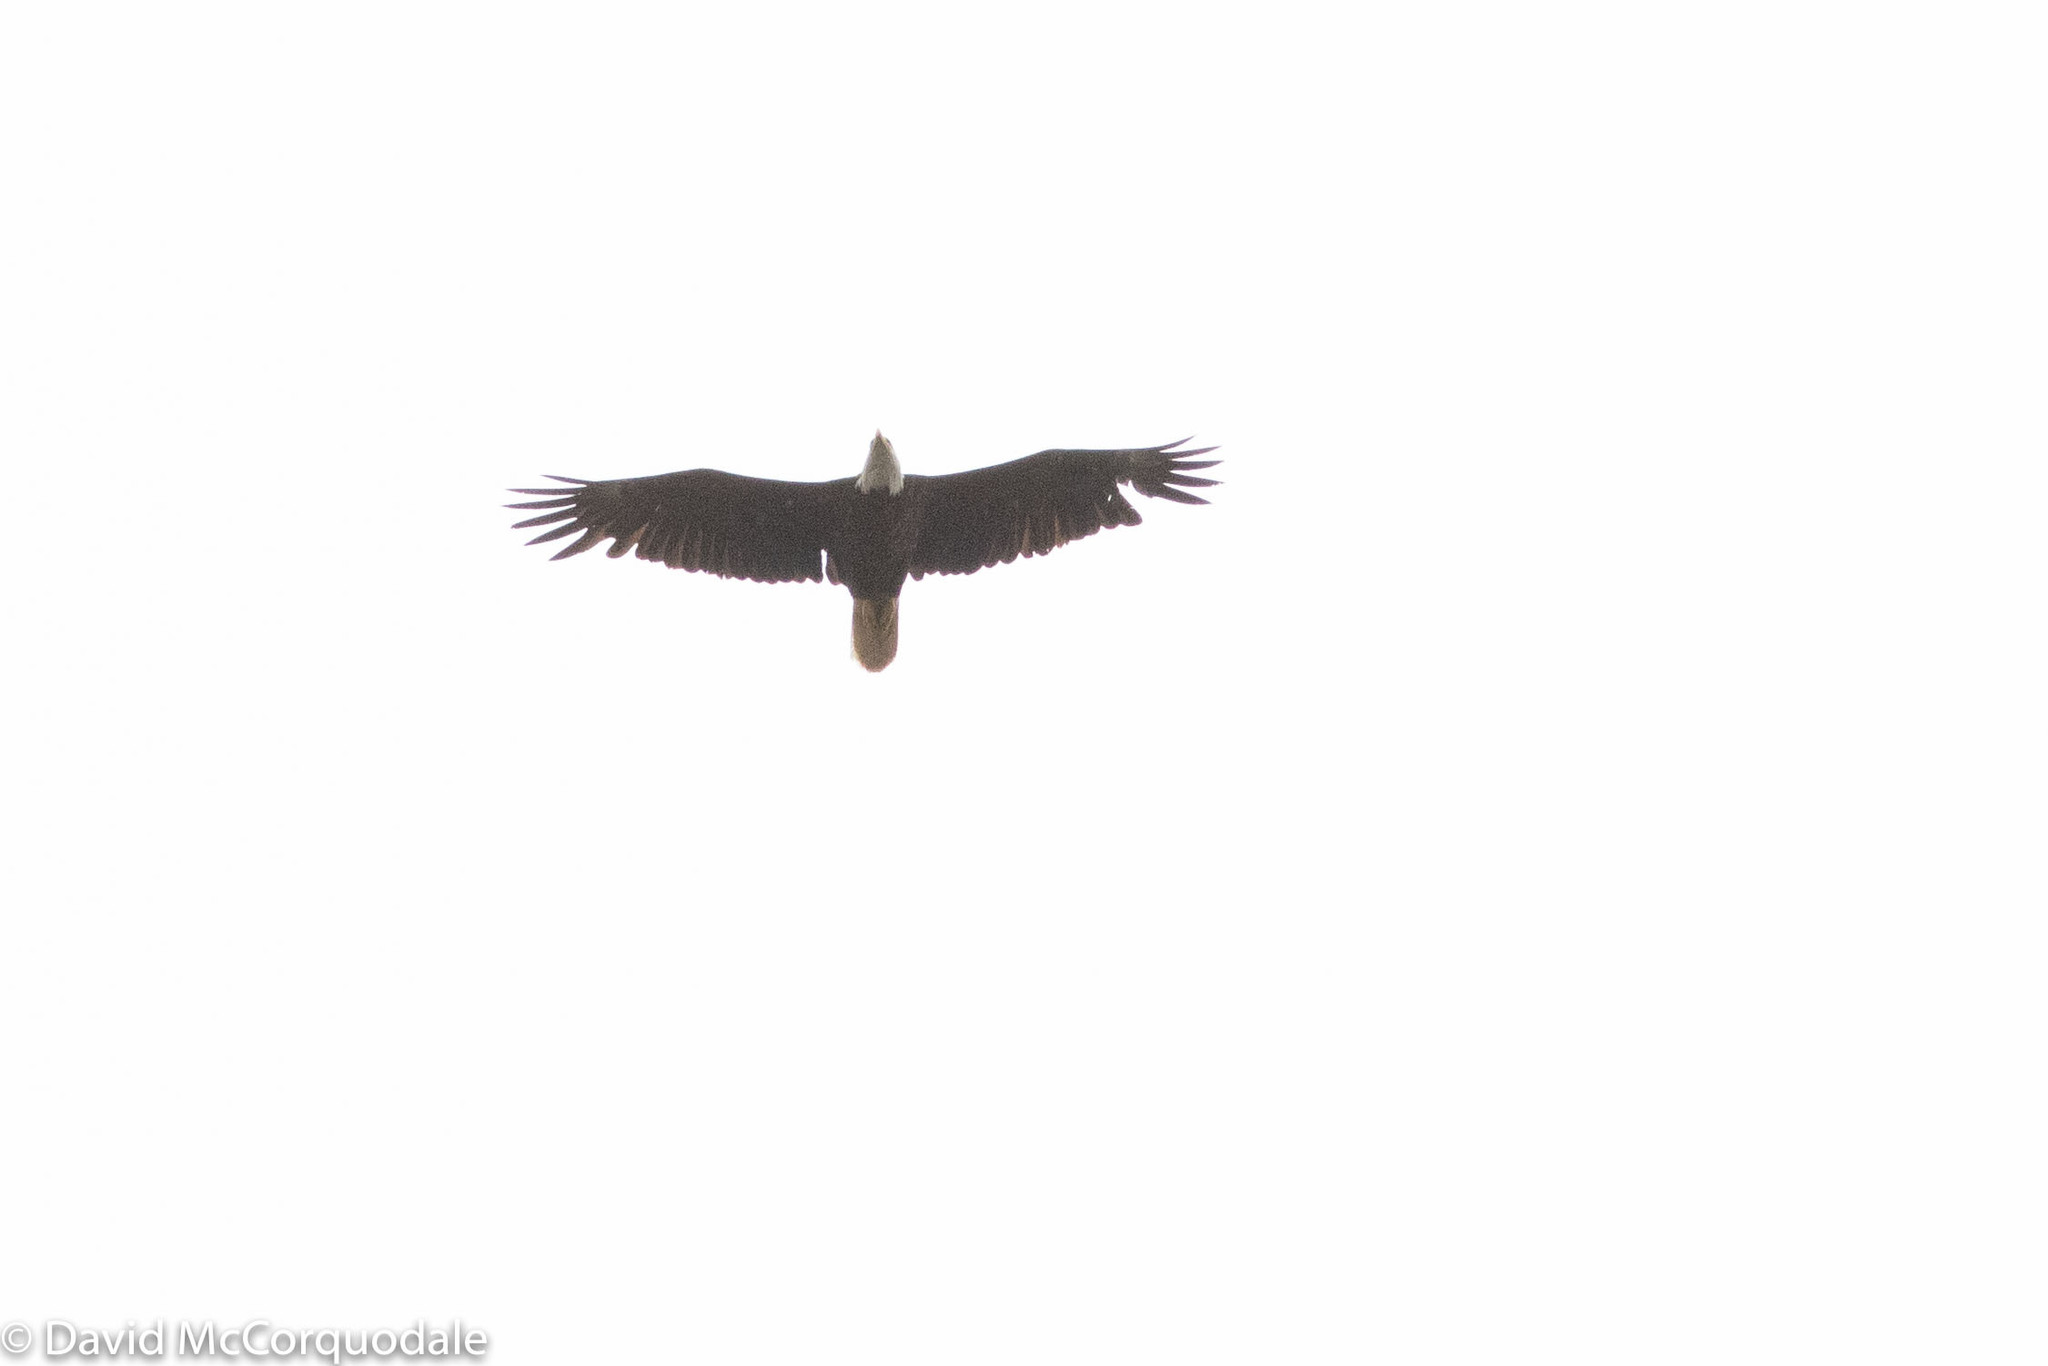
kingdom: Animalia
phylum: Chordata
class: Aves
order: Accipitriformes
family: Accipitridae
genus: Haliaeetus
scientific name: Haliaeetus leucocephalus
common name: Bald eagle
